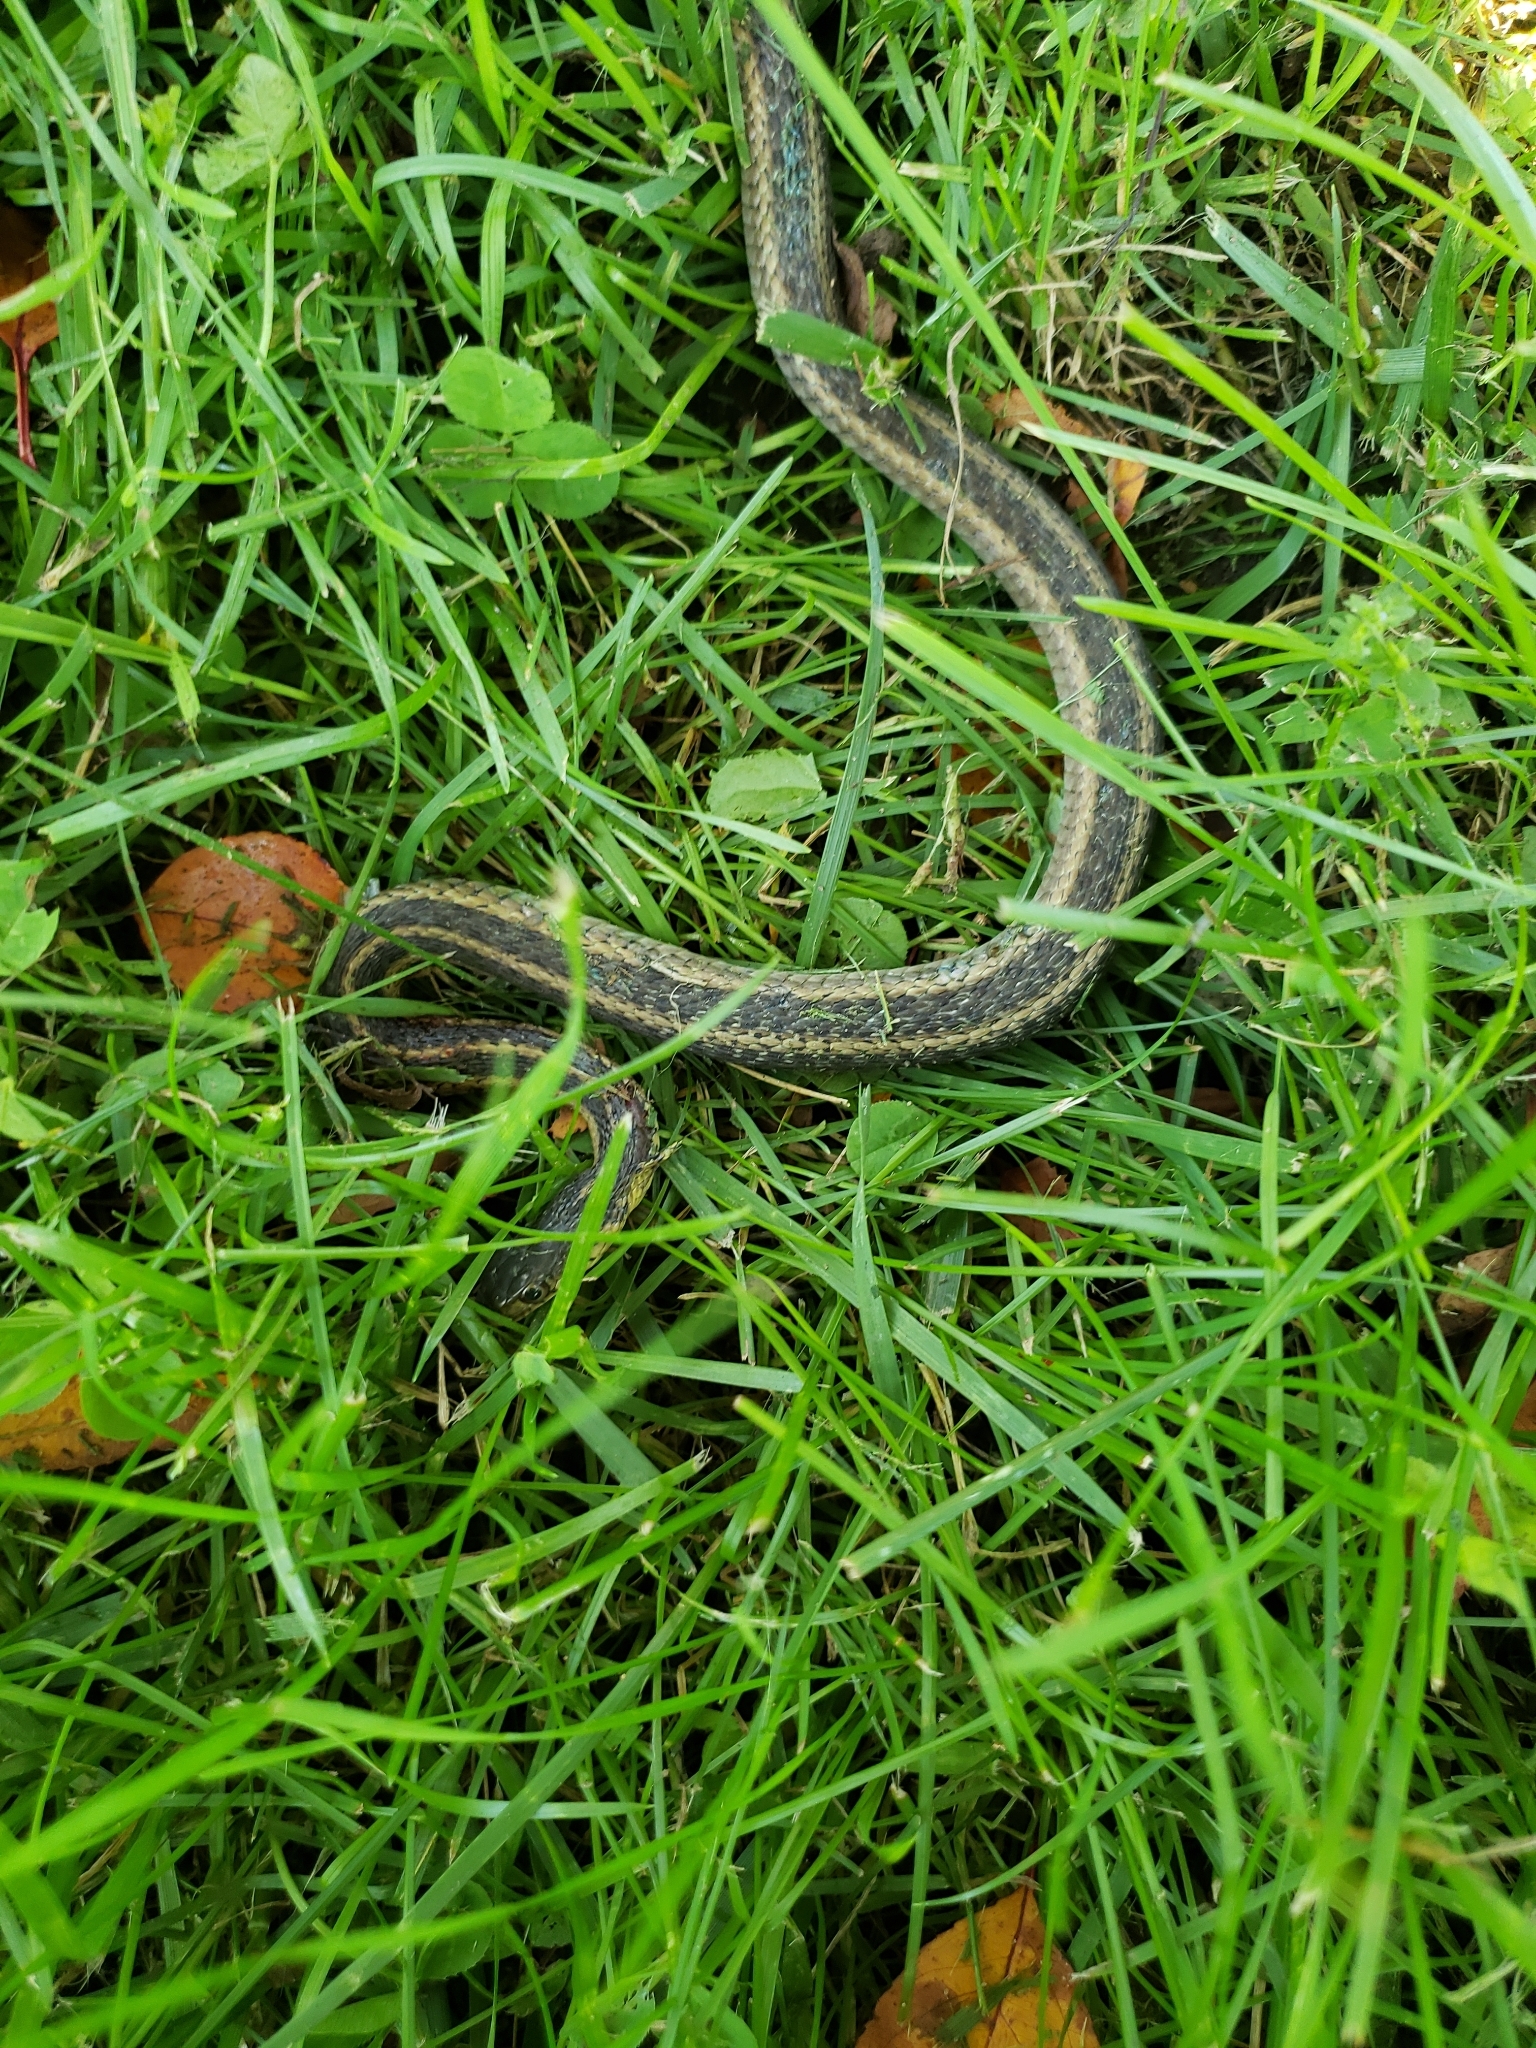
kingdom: Animalia
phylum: Chordata
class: Squamata
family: Colubridae
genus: Thamnophis
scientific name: Thamnophis sirtalis
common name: Common garter snake
